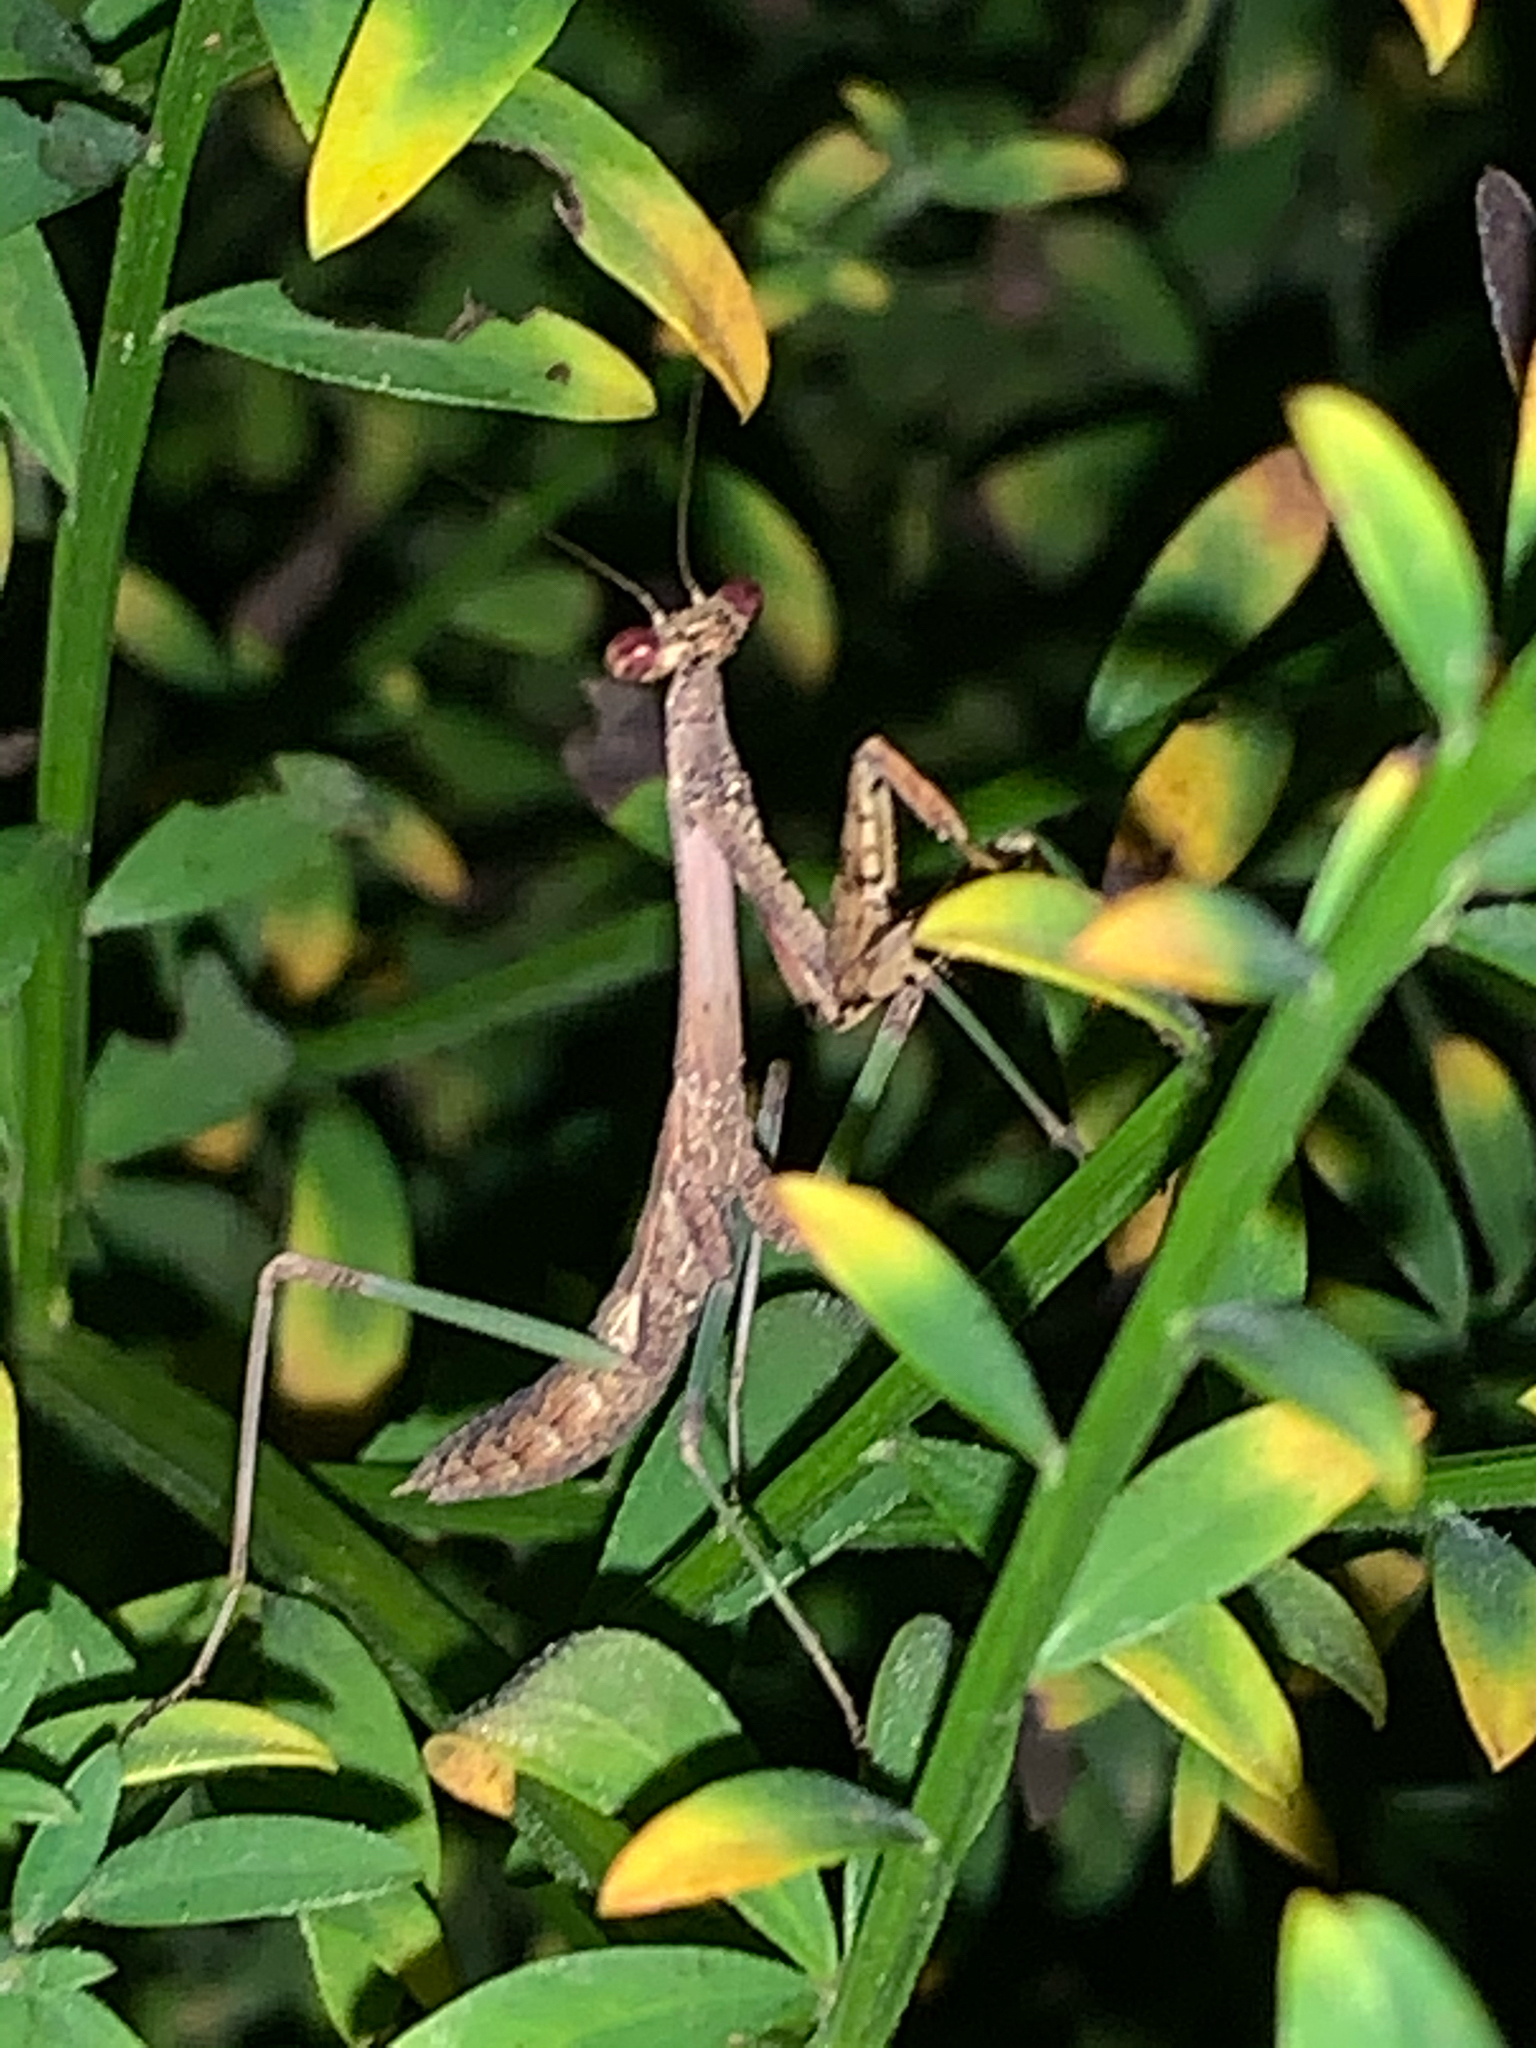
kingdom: Animalia
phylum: Arthropoda
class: Insecta
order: Mantodea
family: Mantidae
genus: Stagmomantis
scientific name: Stagmomantis carolina
